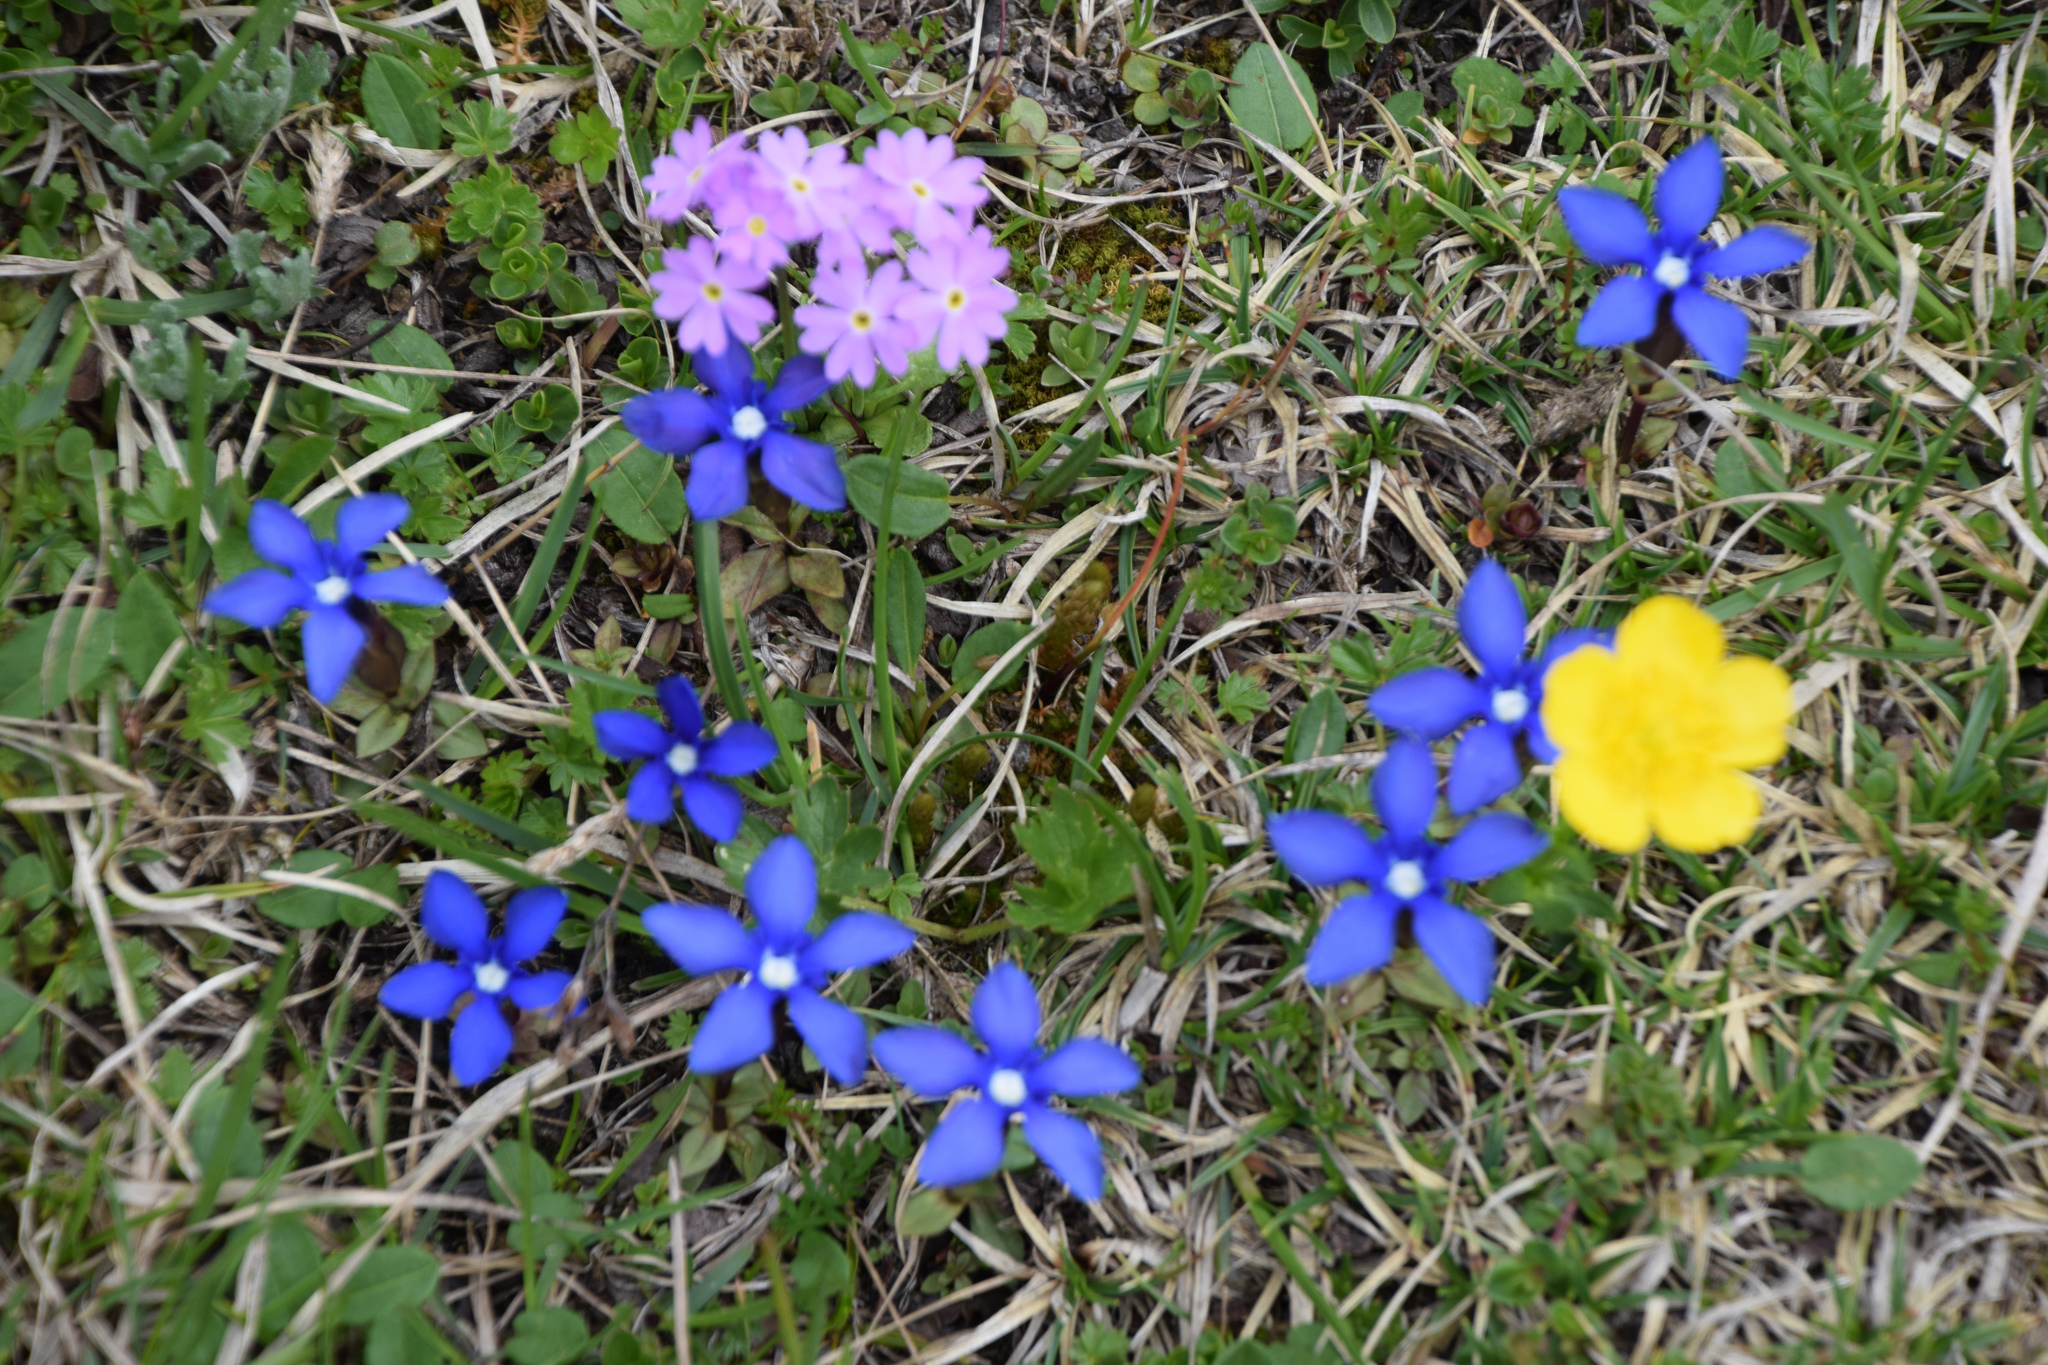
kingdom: Plantae
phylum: Tracheophyta
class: Magnoliopsida
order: Gentianales
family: Gentianaceae
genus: Gentiana
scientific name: Gentiana verna
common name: Spring gentian
